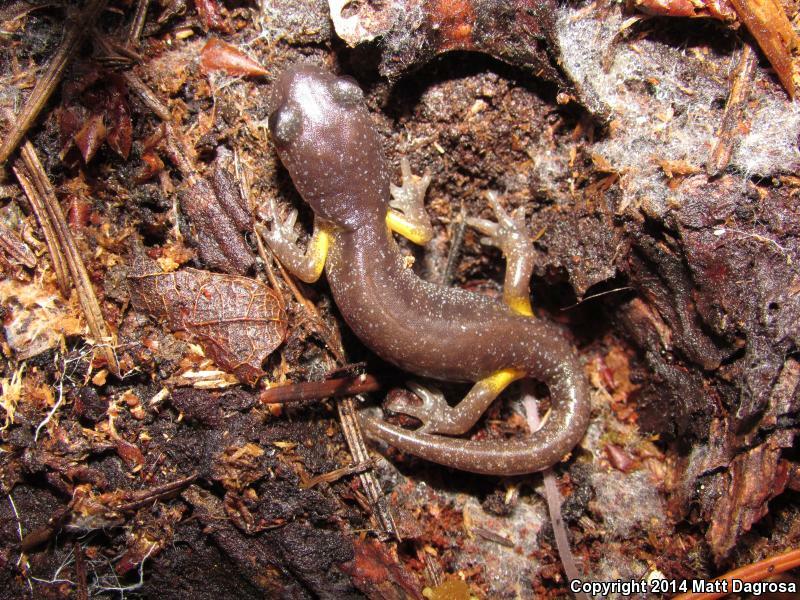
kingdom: Animalia
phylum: Chordata
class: Amphibia
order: Caudata
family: Plethodontidae
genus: Ensatina
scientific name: Ensatina eschscholtzii
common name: Ensatina
